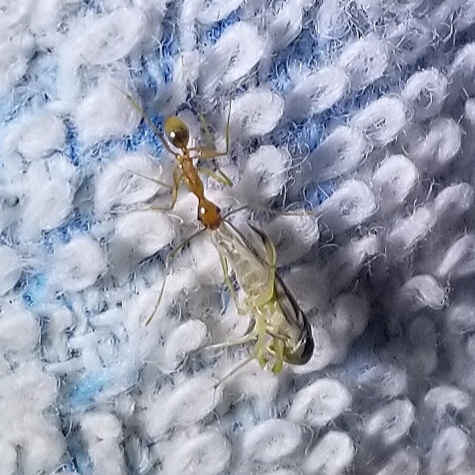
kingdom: Animalia
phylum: Arthropoda
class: Insecta
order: Hymenoptera
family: Formicidae
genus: Pheidole
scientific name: Pheidole vistana
